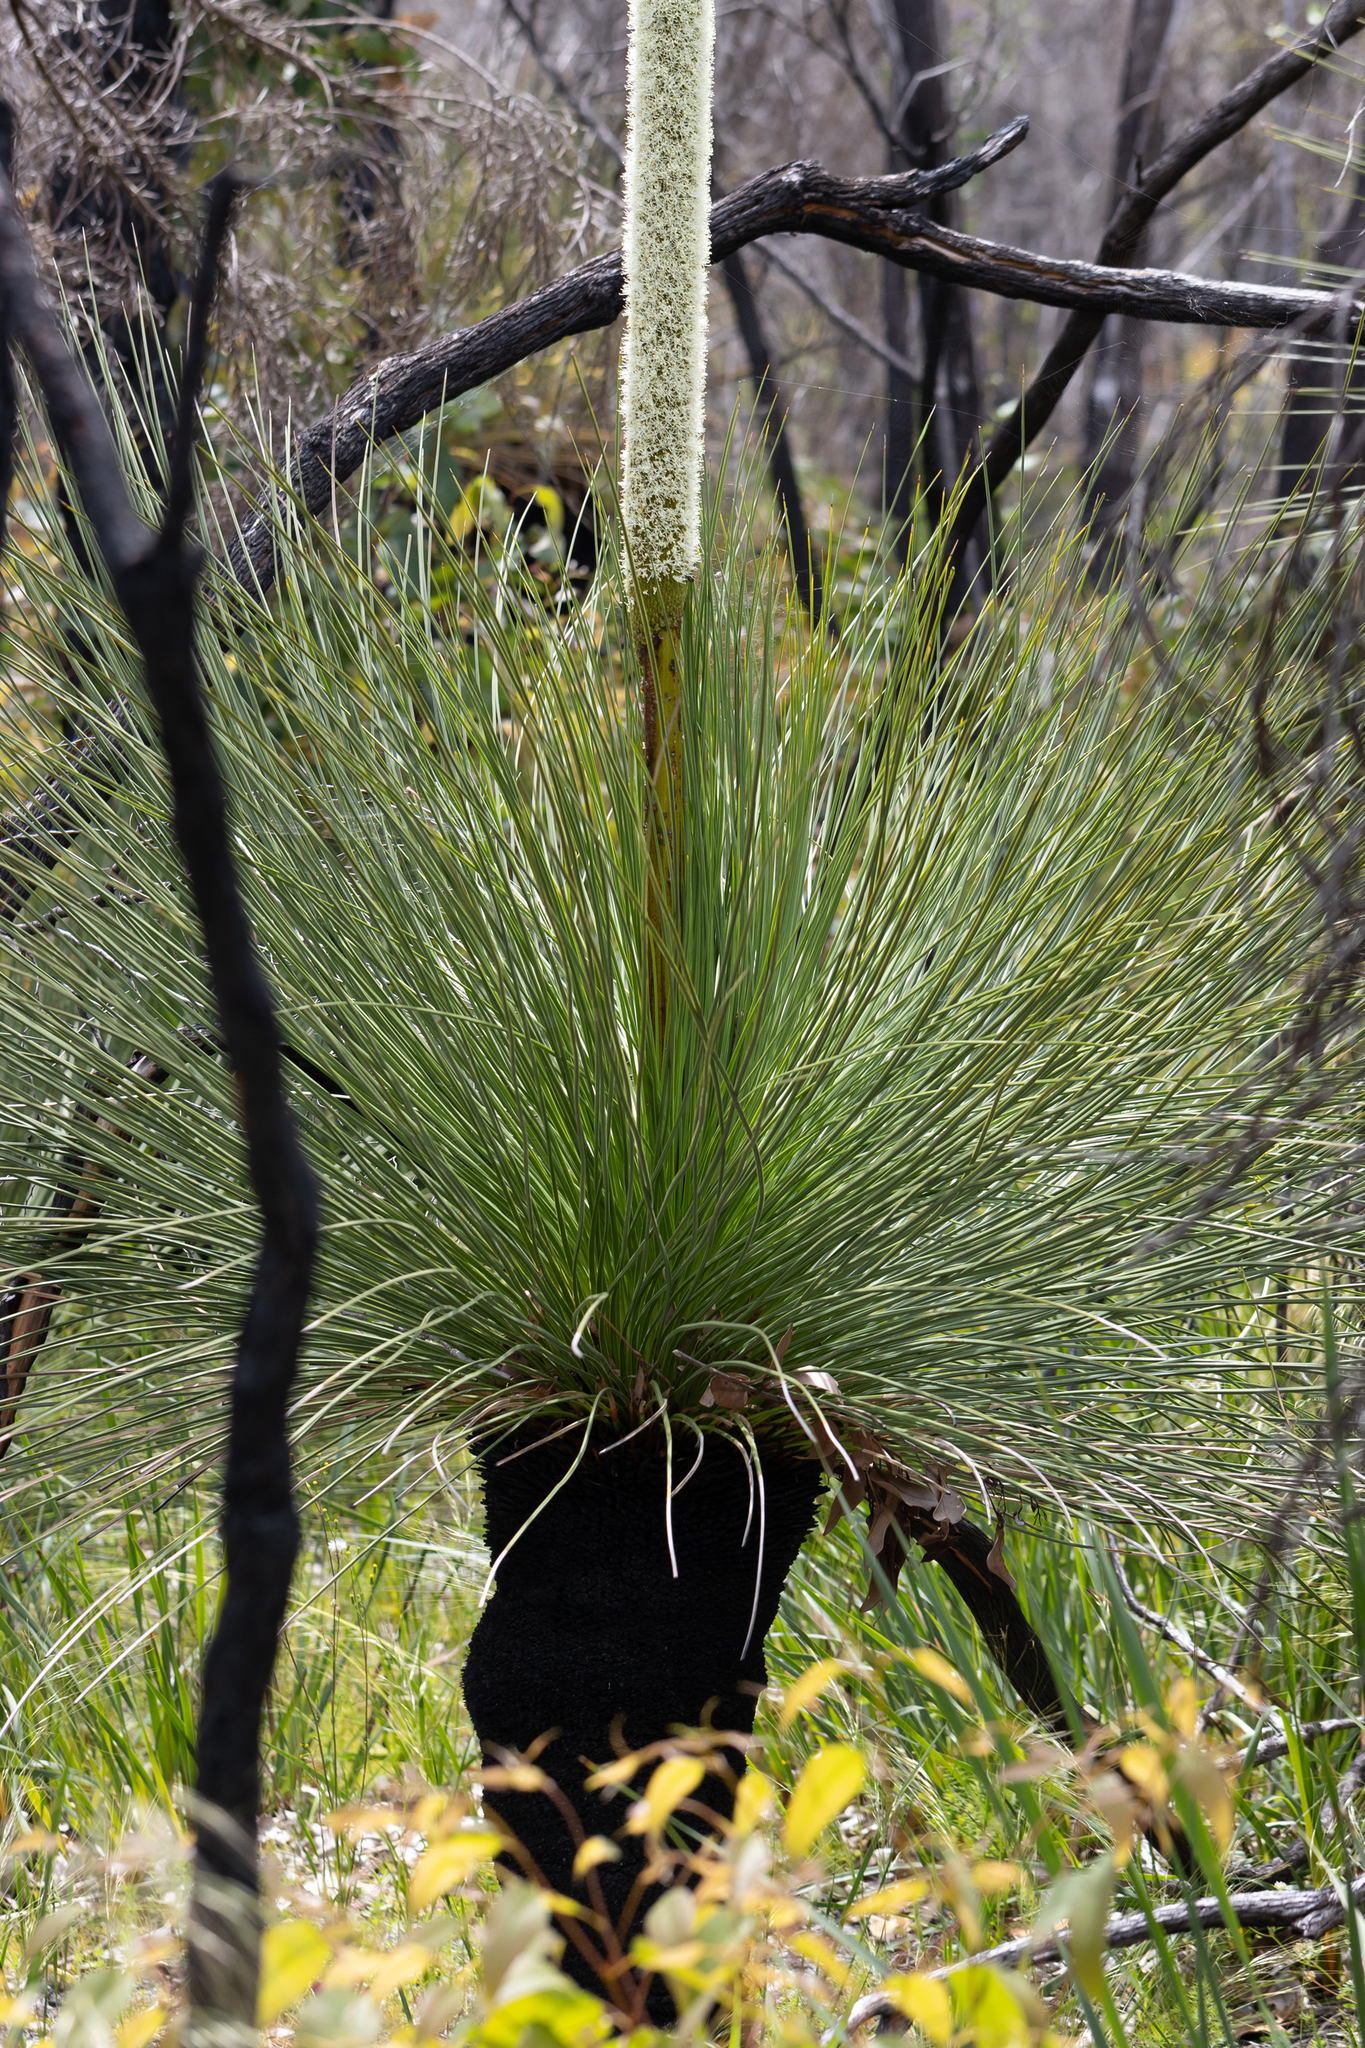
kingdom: Plantae
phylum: Tracheophyta
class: Liliopsida
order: Asparagales
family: Asphodelaceae
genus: Xanthorrhoea
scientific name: Xanthorrhoea preissii
